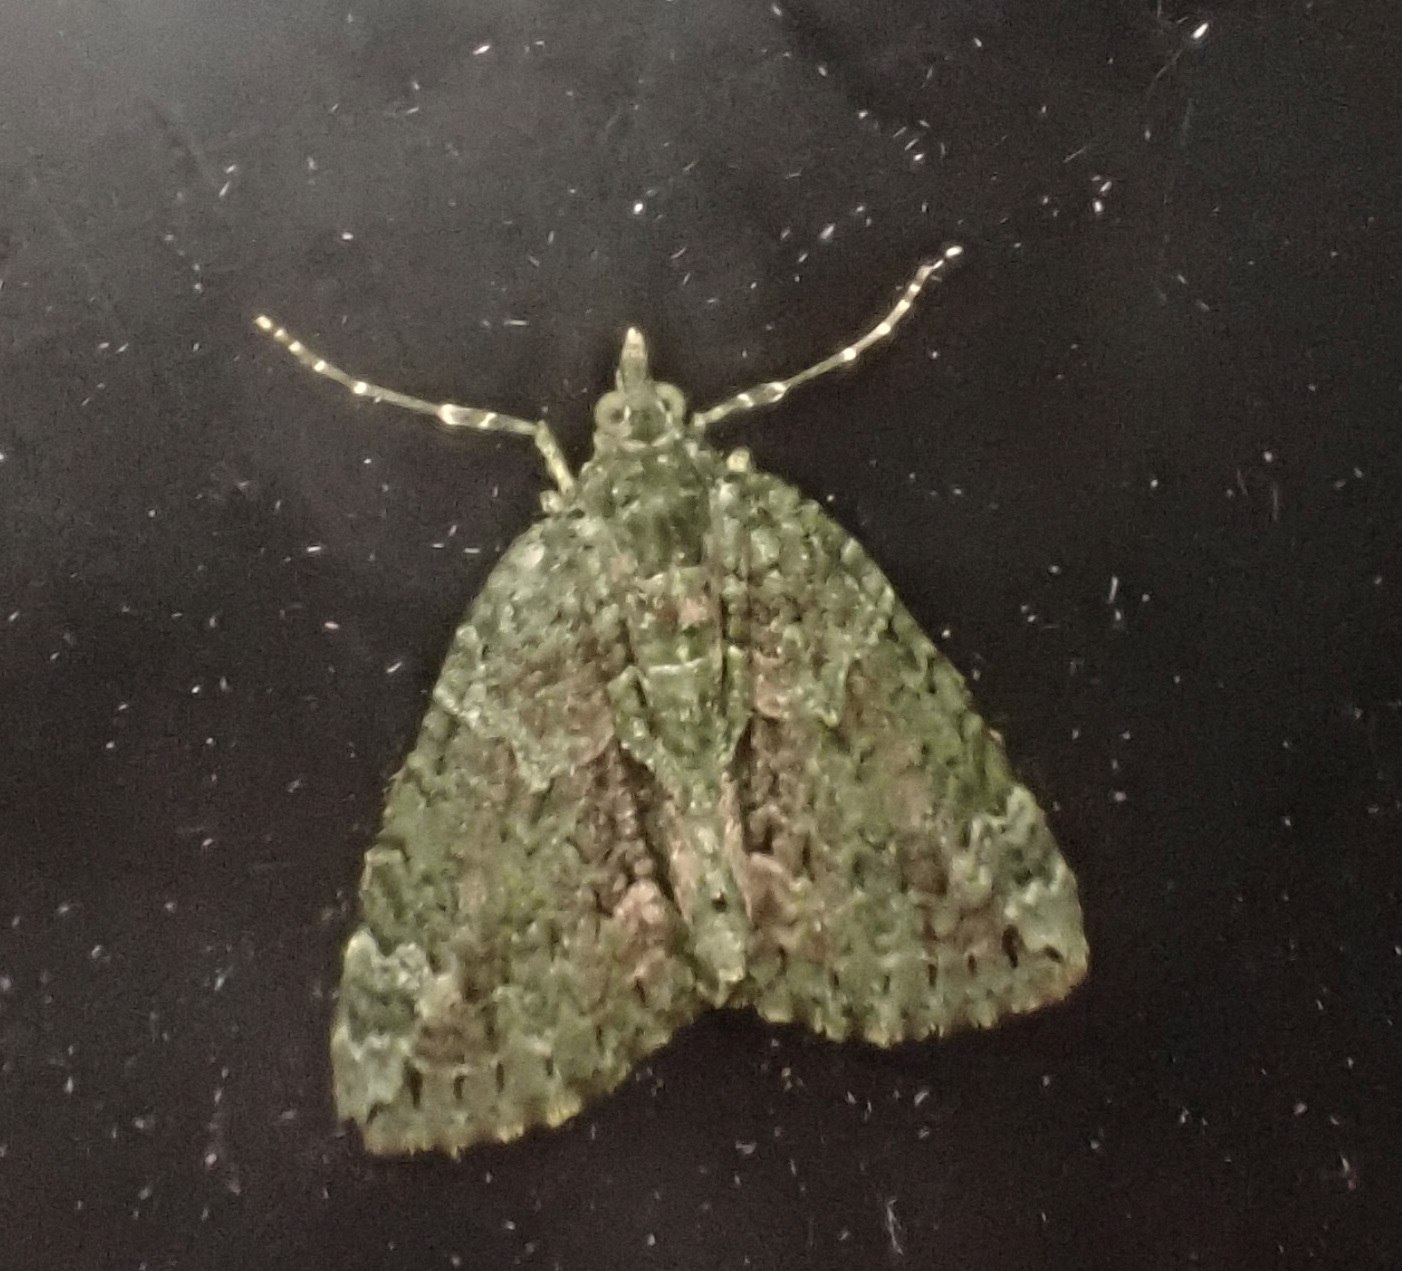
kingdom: Animalia
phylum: Arthropoda
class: Insecta
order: Lepidoptera
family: Geometridae
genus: Chloroclysta
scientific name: Chloroclysta siterata
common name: Red-green carpet
